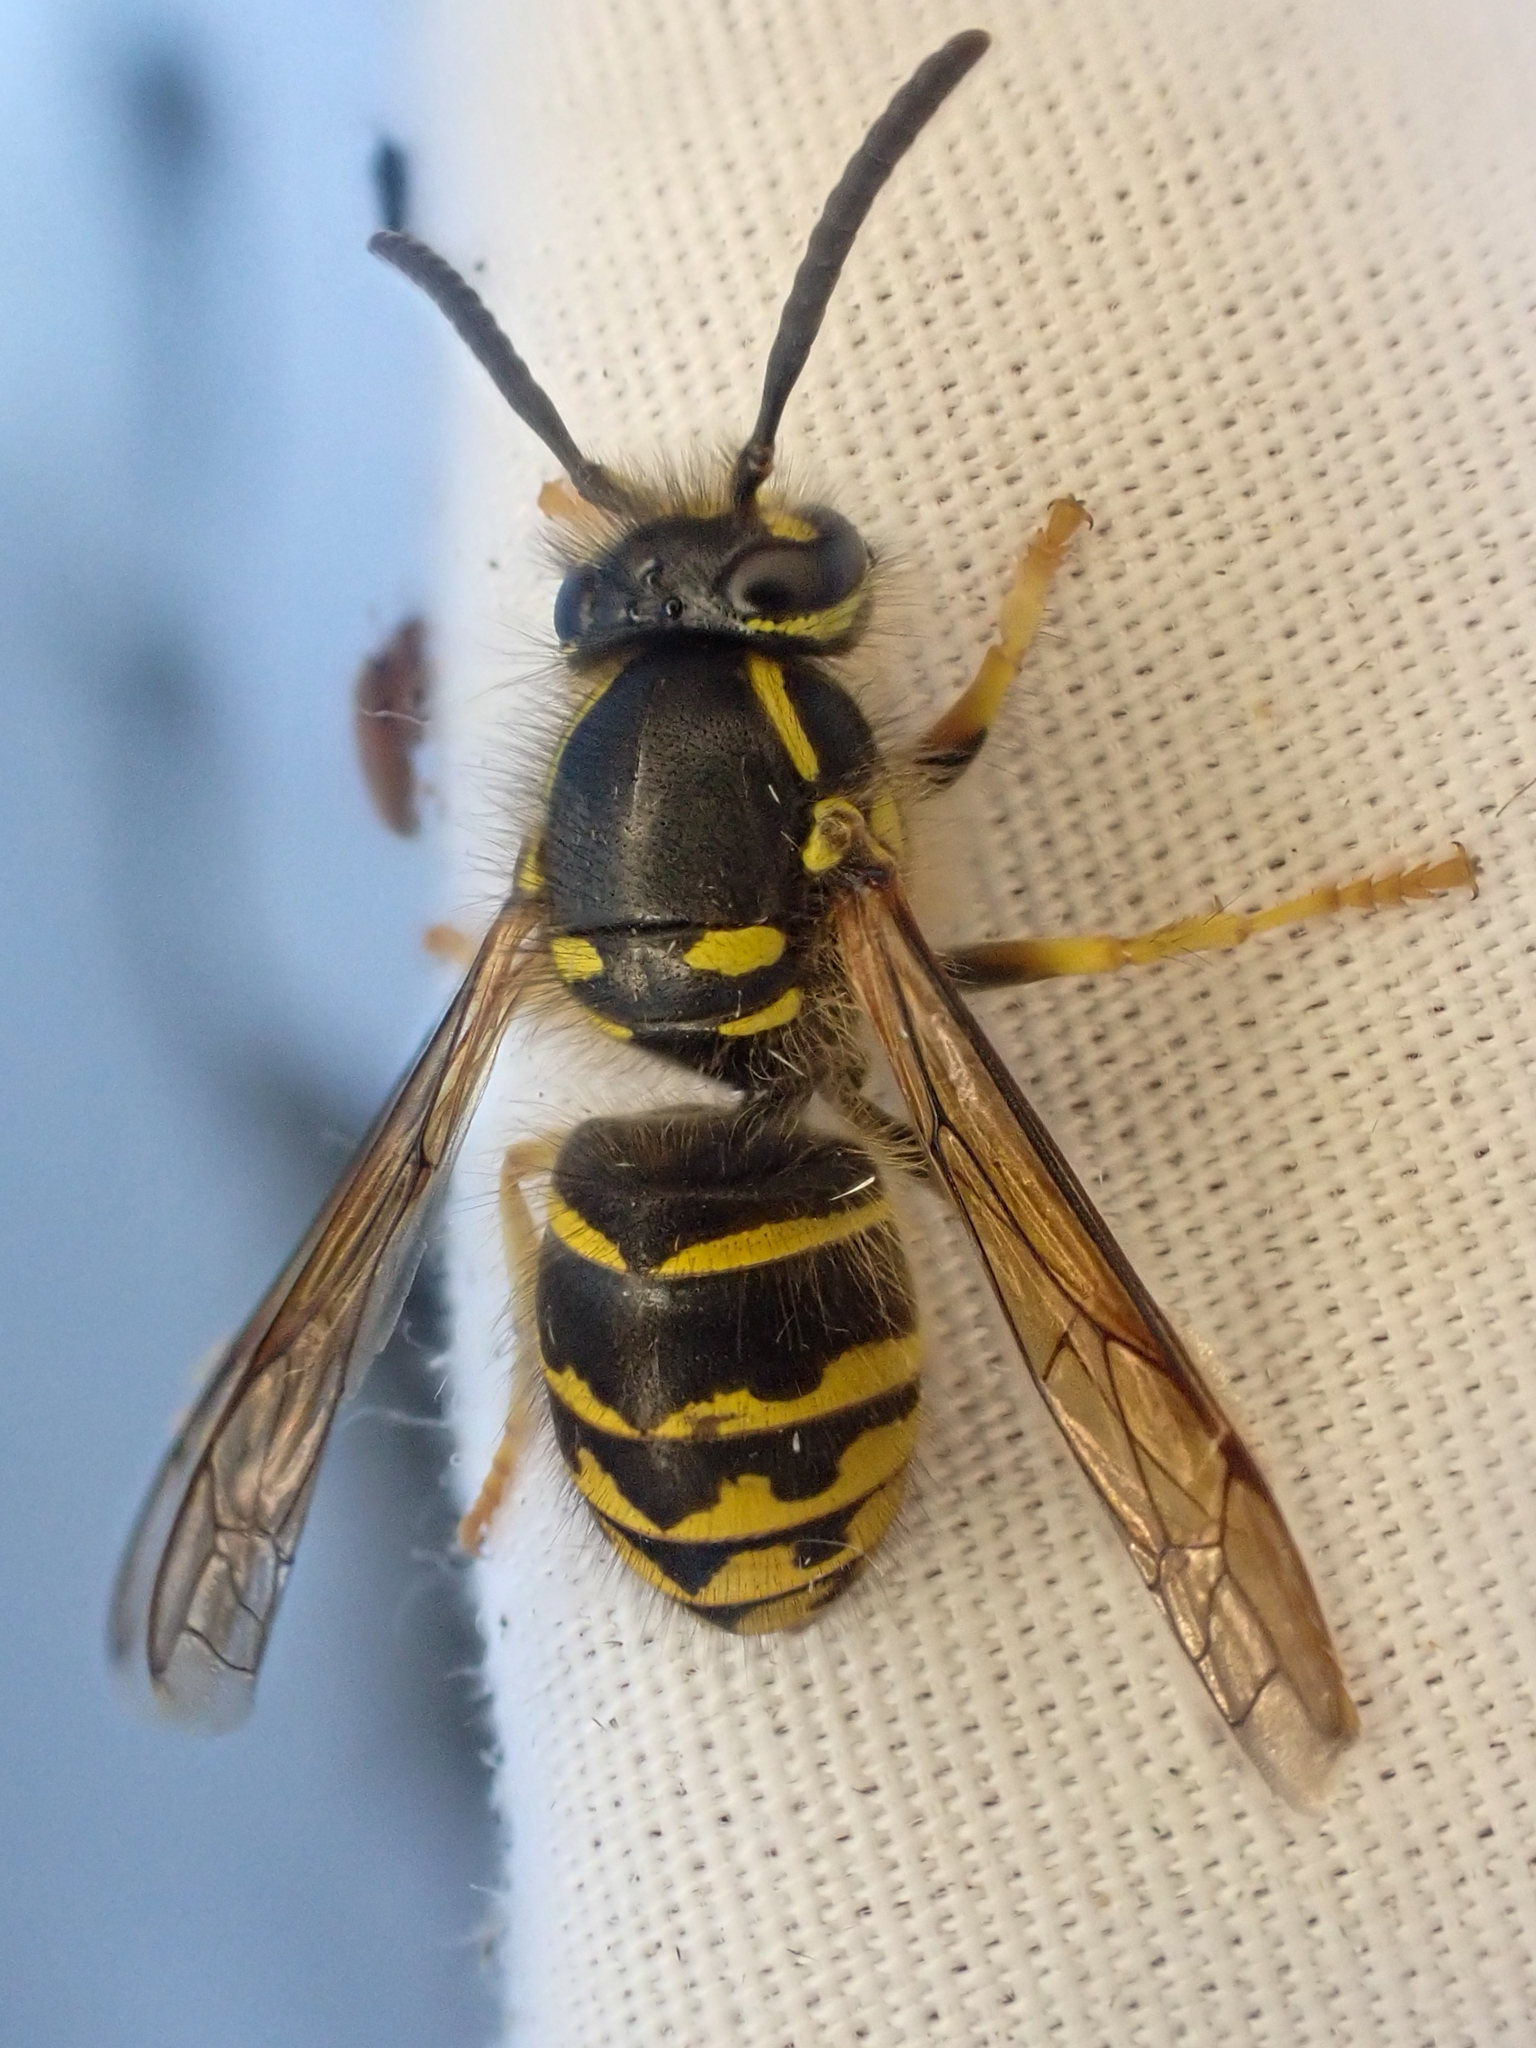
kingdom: Animalia
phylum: Arthropoda
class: Insecta
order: Hymenoptera
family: Vespidae
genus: Dolichovespula
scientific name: Dolichovespula arenaria
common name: Aerial yellowjacket
